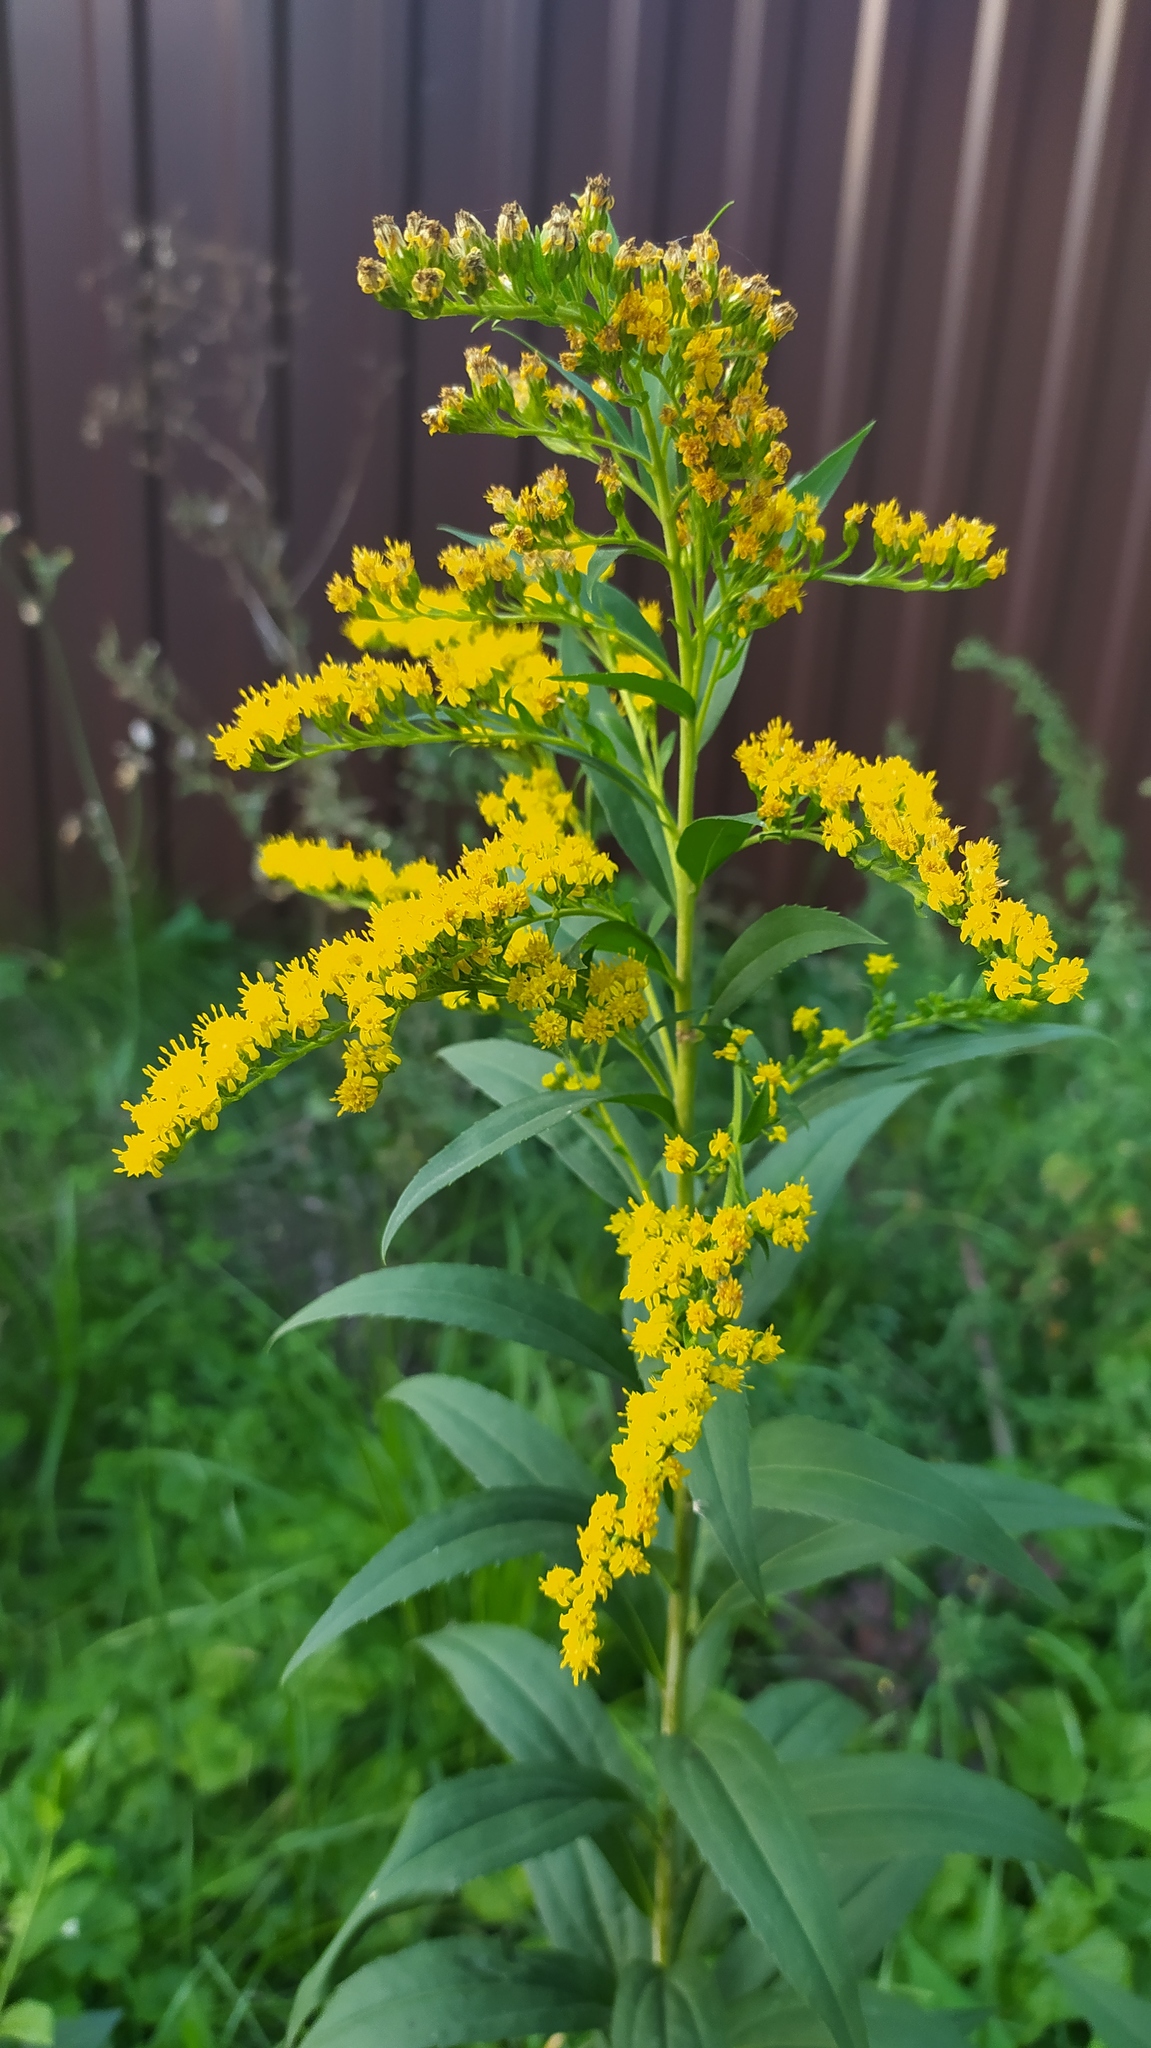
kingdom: Plantae
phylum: Tracheophyta
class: Magnoliopsida
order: Asterales
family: Asteraceae
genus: Solidago
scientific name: Solidago gigantea
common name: Giant goldenrod
